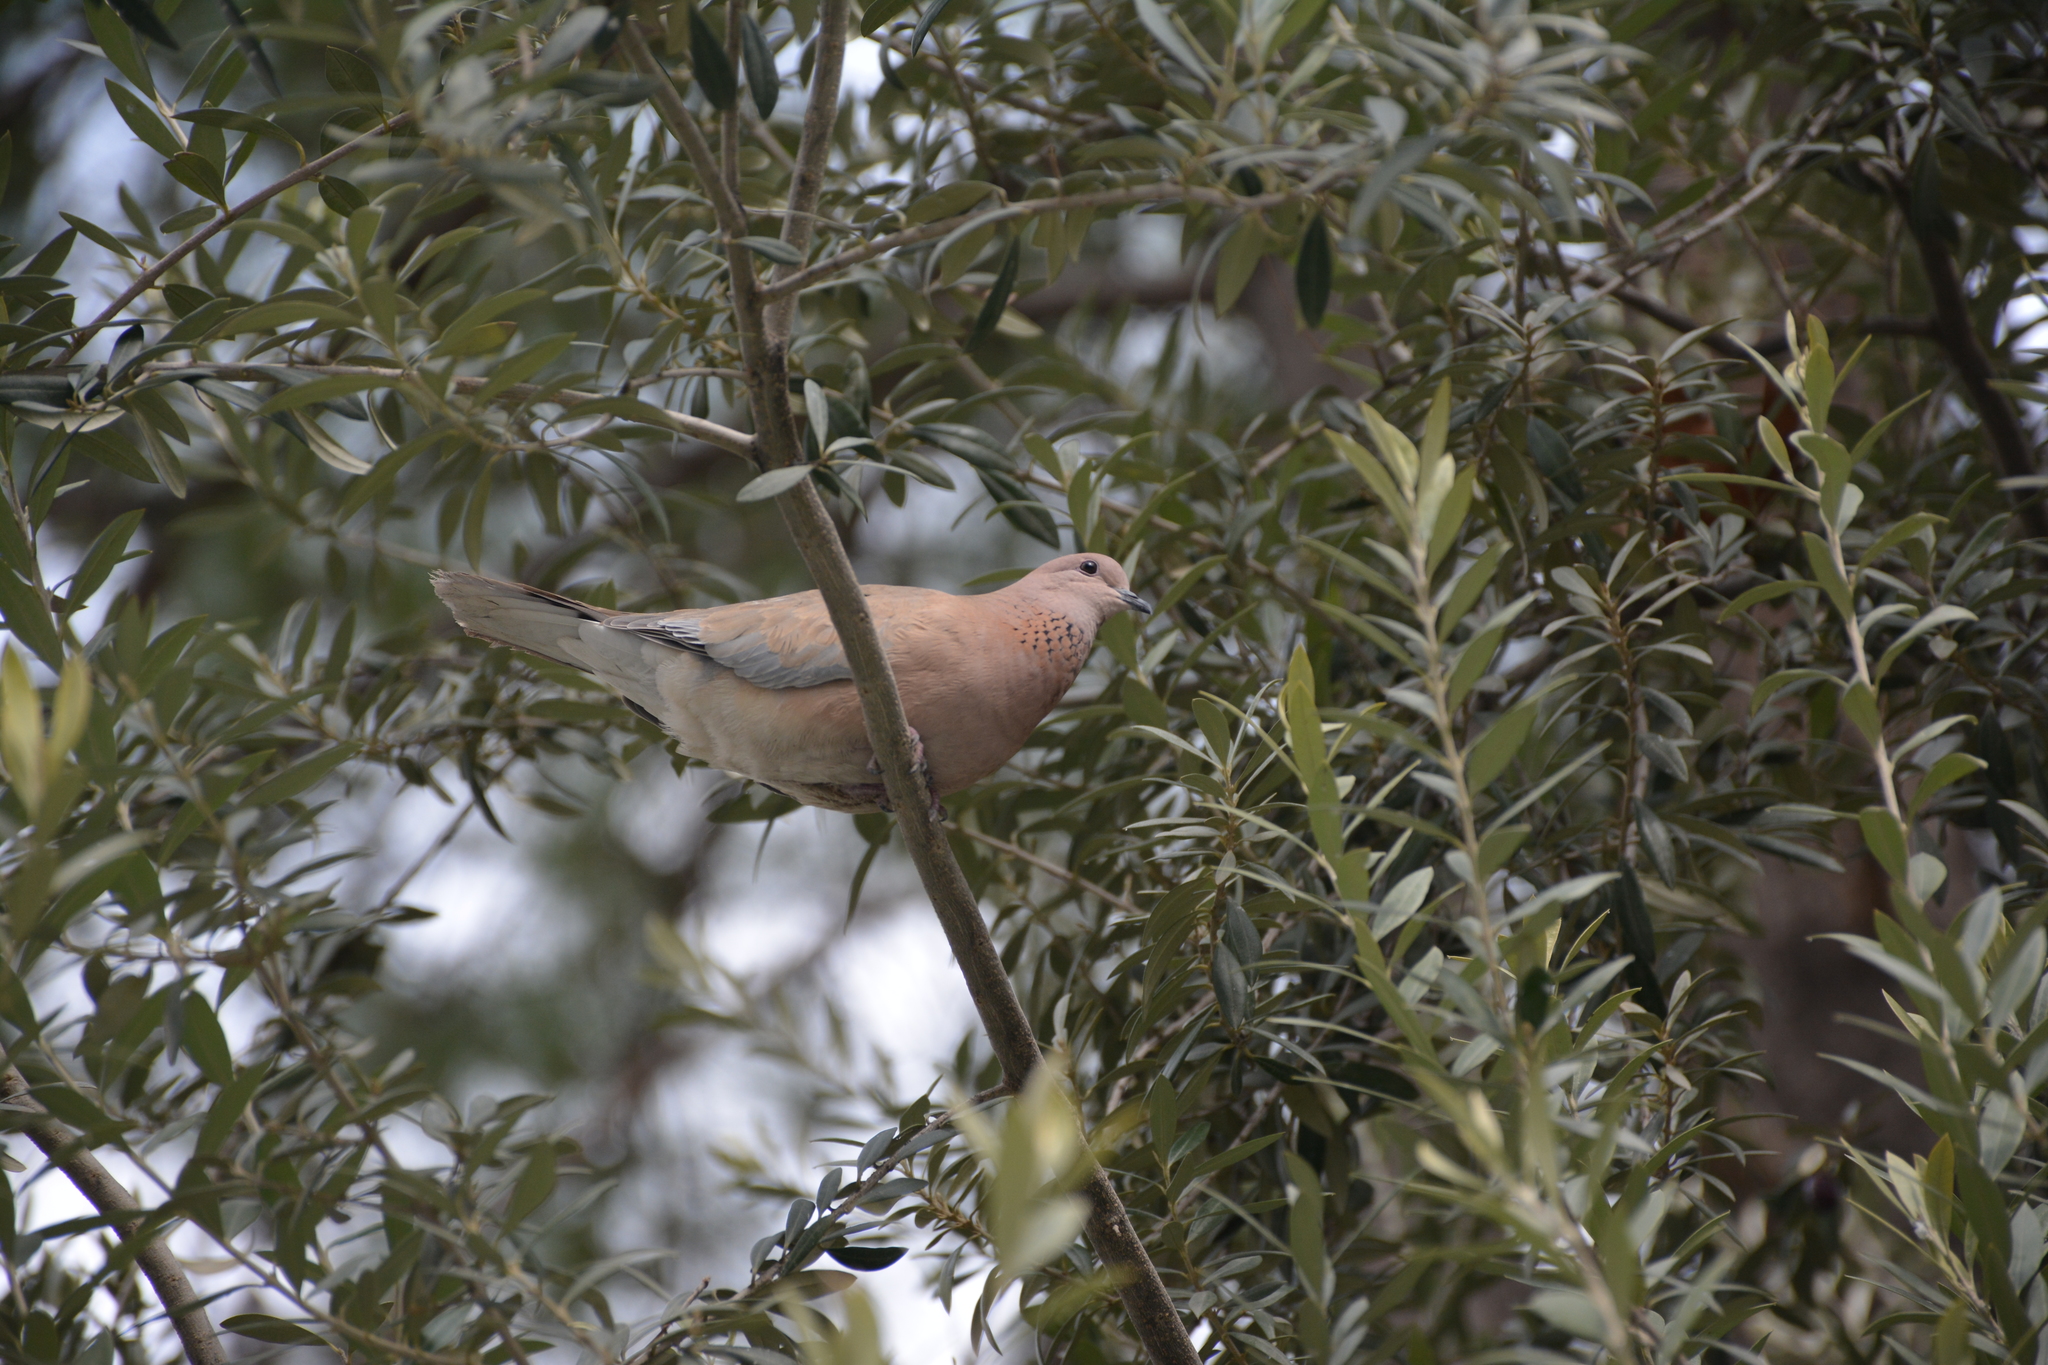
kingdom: Animalia
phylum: Chordata
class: Aves
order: Columbiformes
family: Columbidae
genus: Spilopelia
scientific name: Spilopelia senegalensis
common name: Laughing dove
